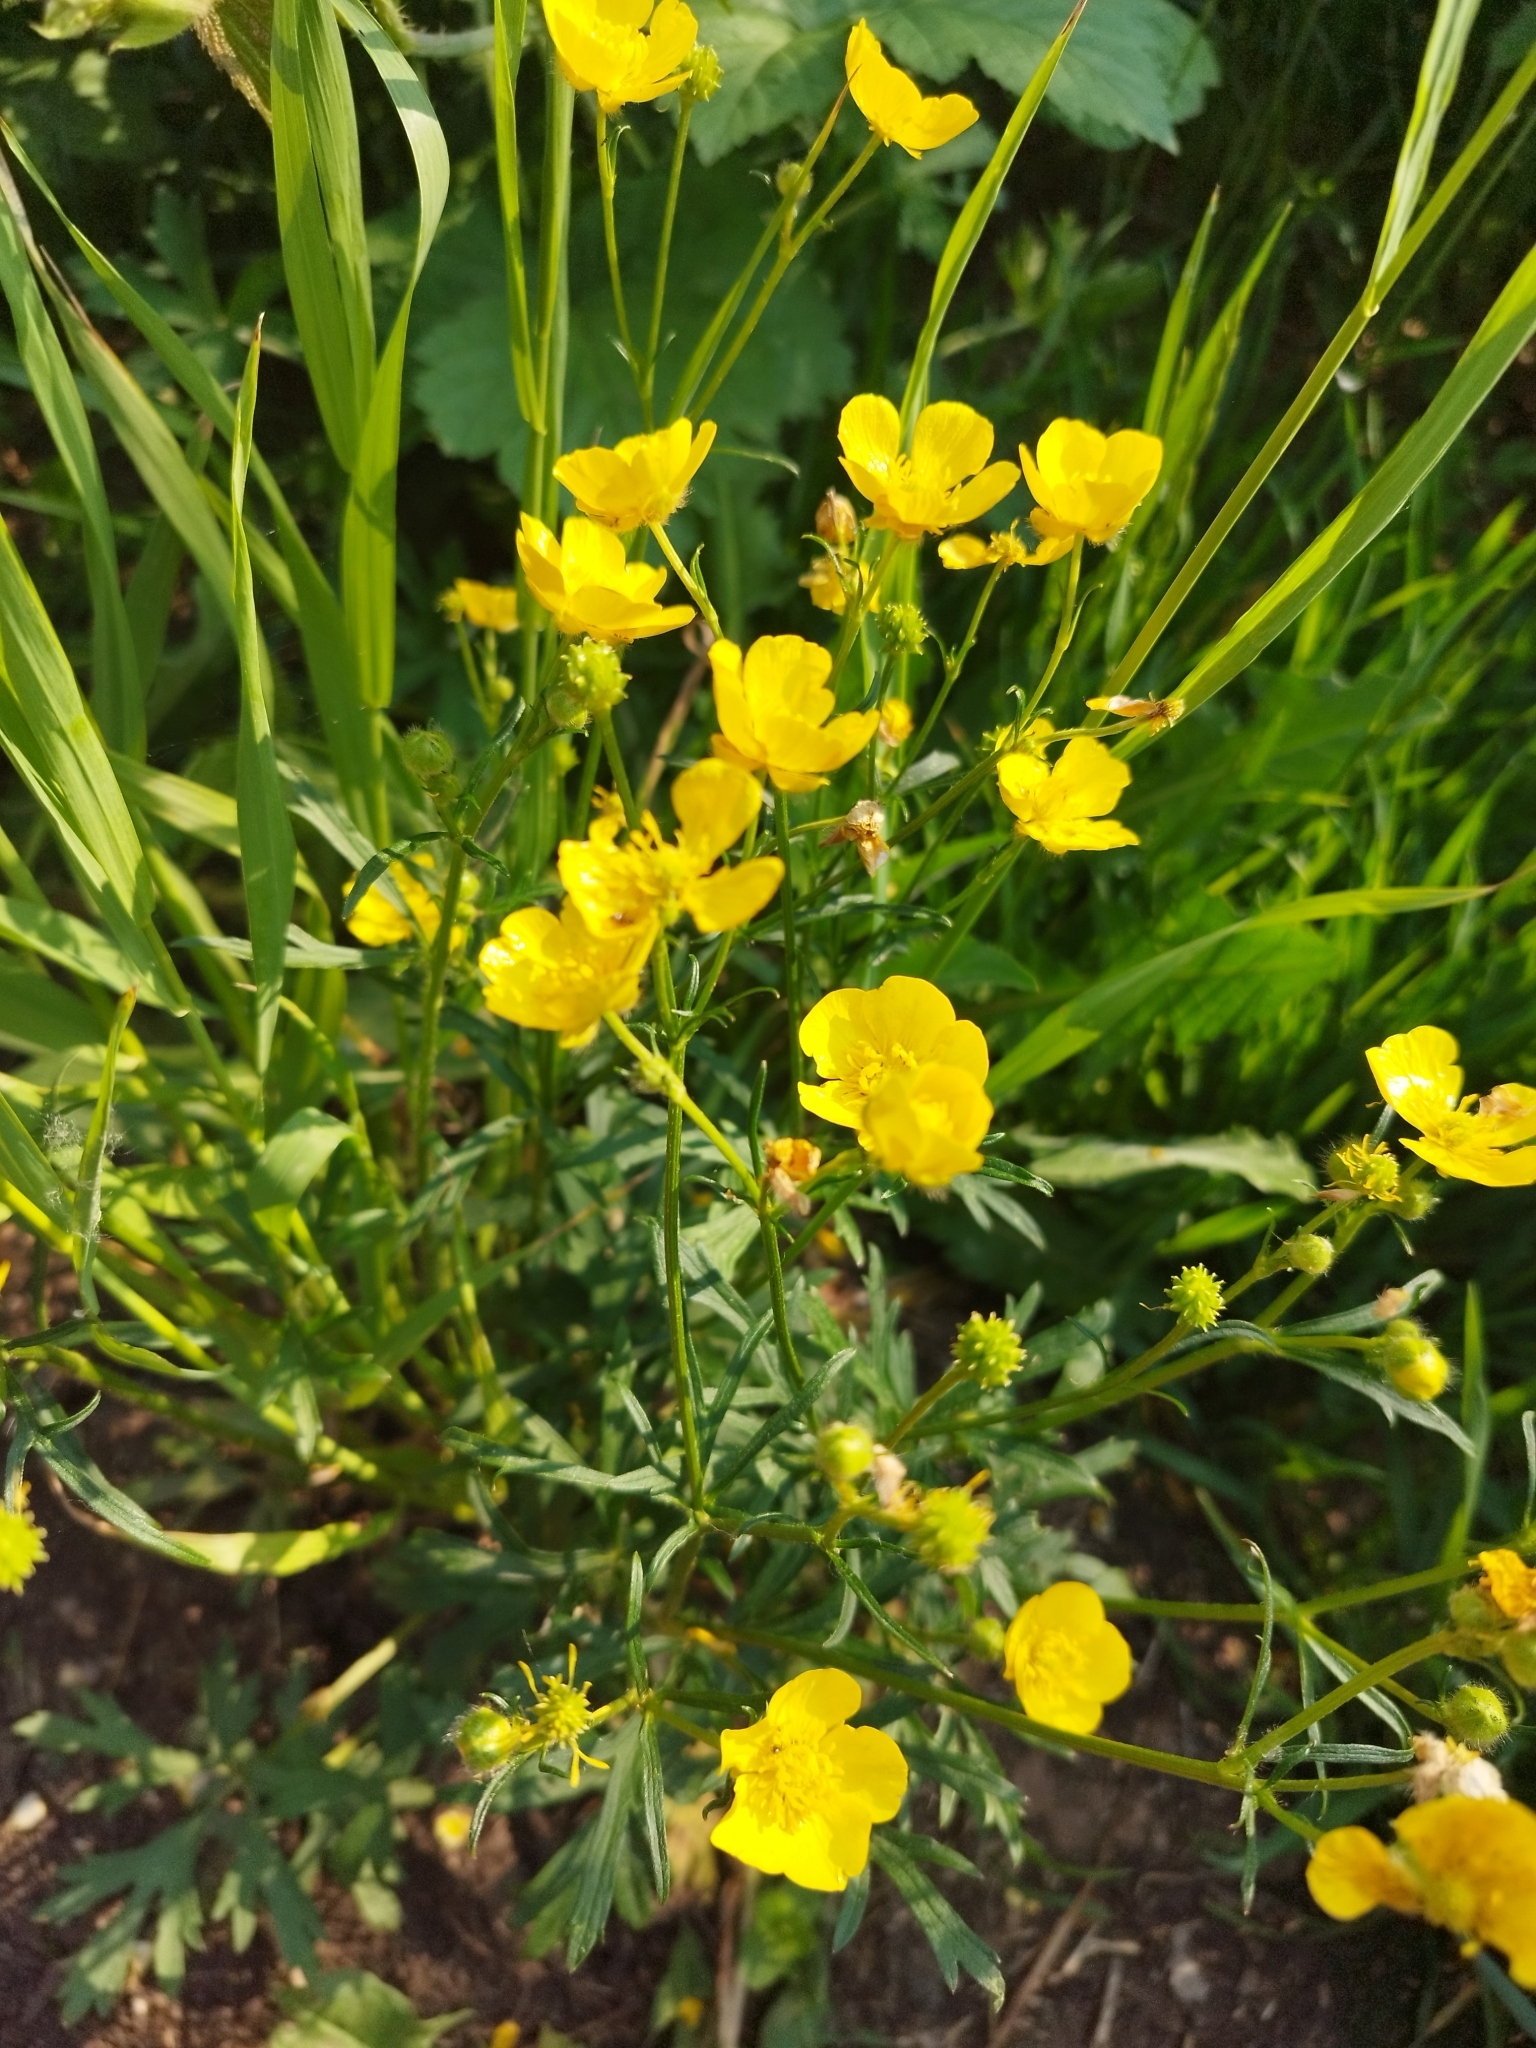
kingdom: Plantae
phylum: Tracheophyta
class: Magnoliopsida
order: Ranunculales
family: Ranunculaceae
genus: Ranunculus
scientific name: Ranunculus polyanthemos
